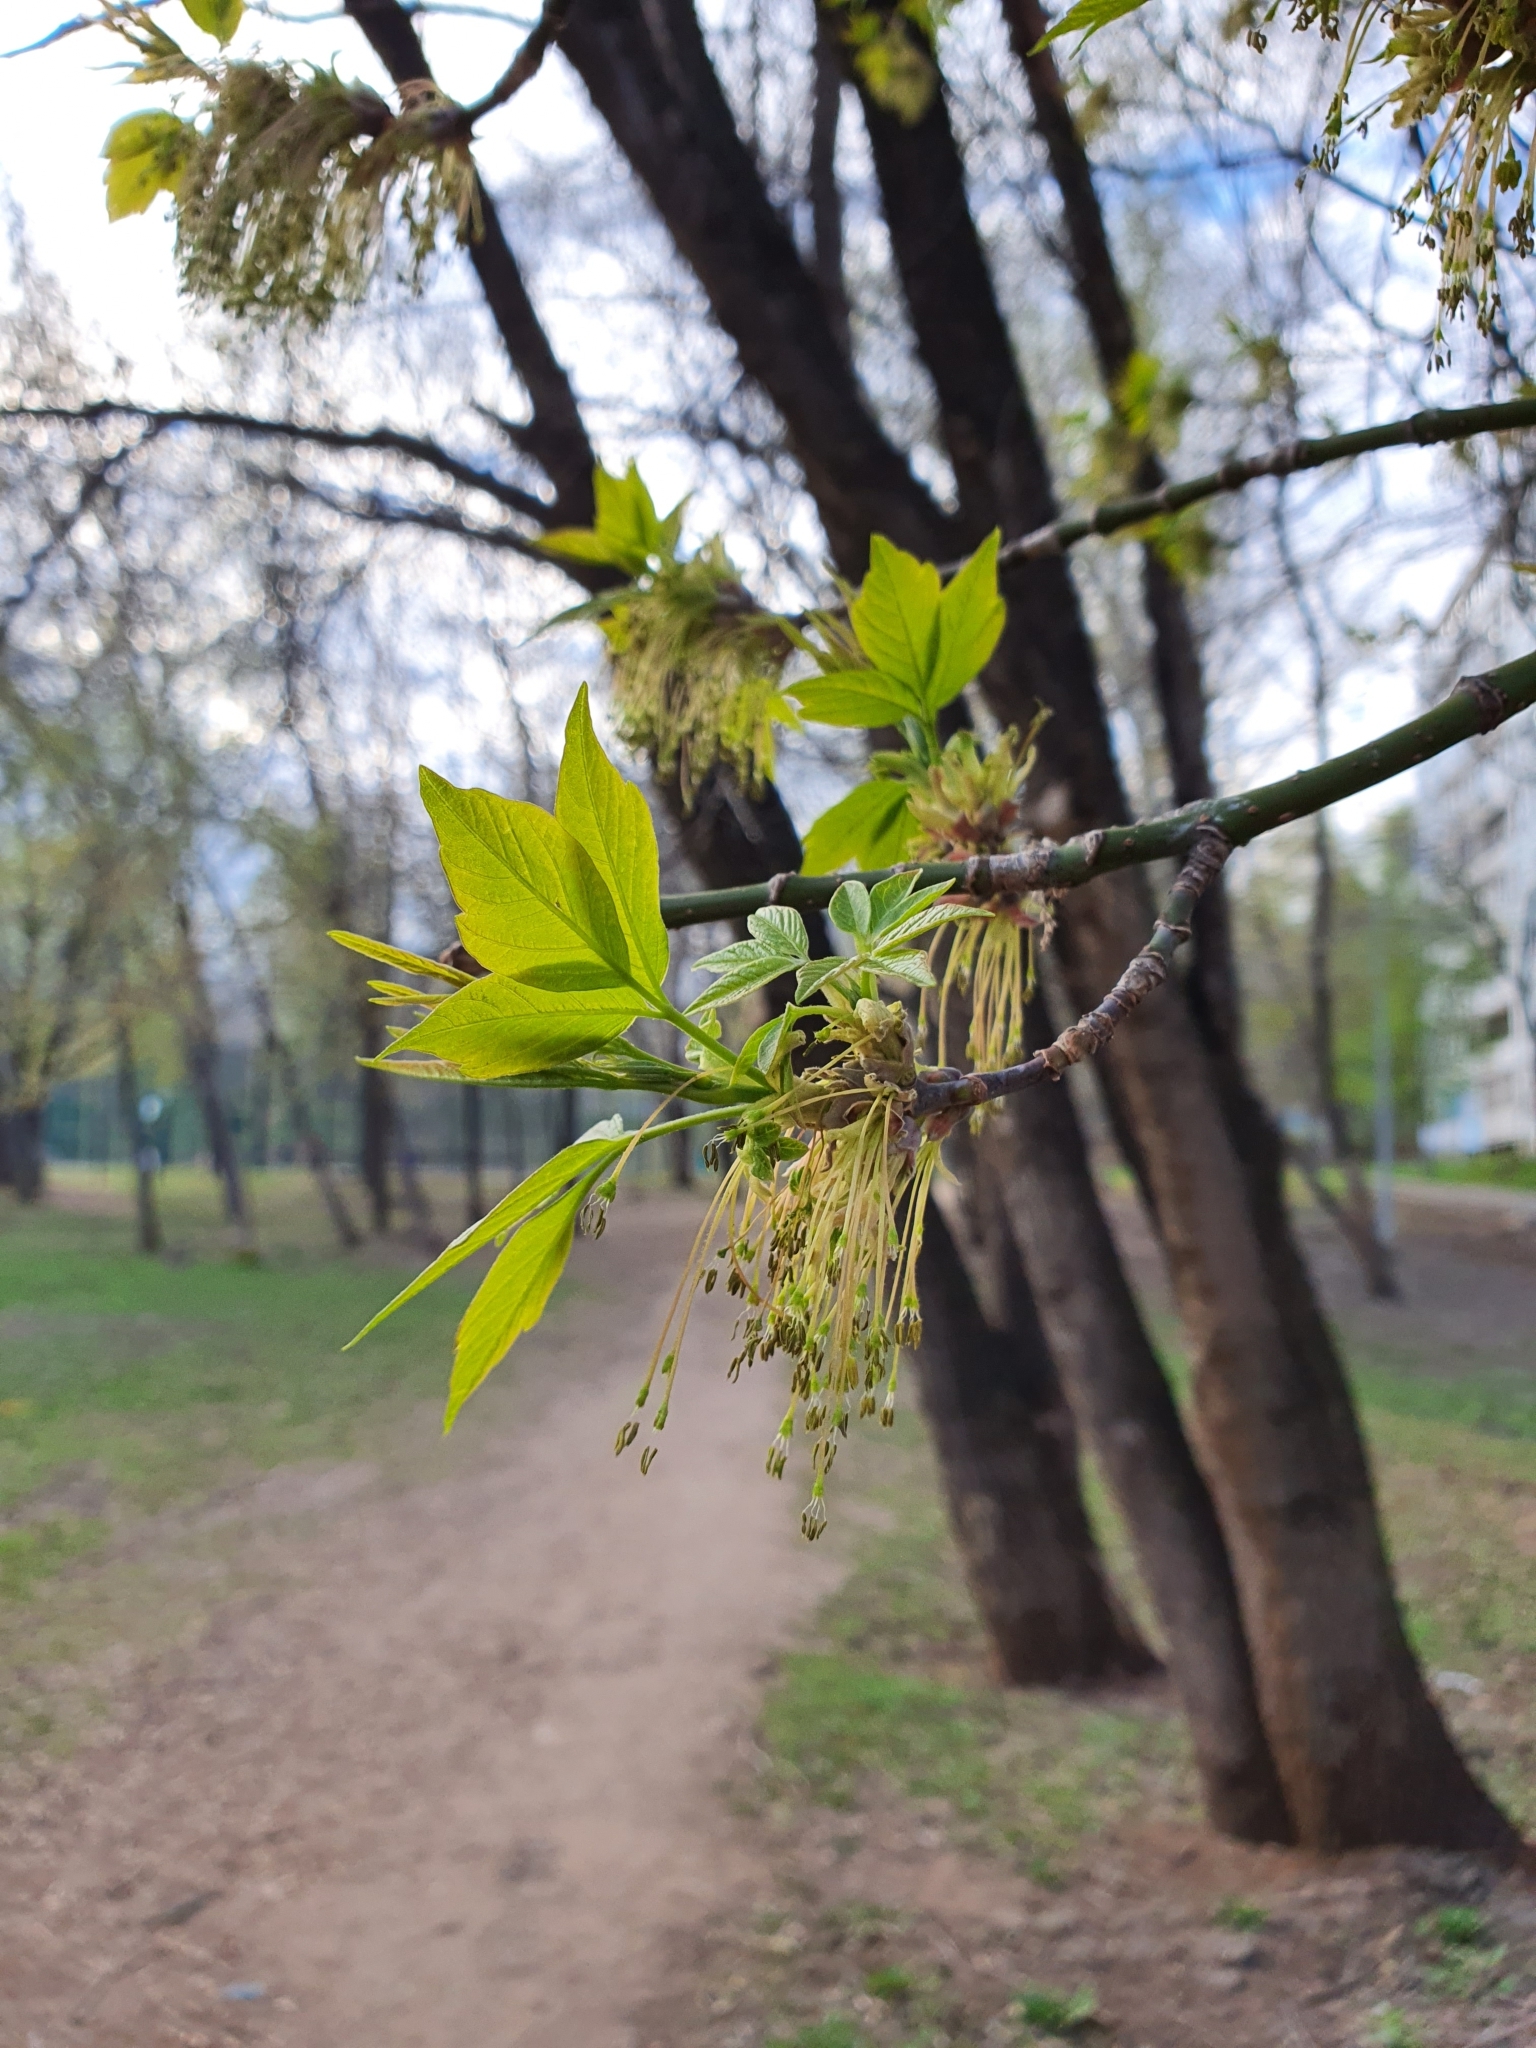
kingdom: Plantae
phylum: Tracheophyta
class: Magnoliopsida
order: Sapindales
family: Sapindaceae
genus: Acer
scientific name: Acer negundo
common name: Ashleaf maple
